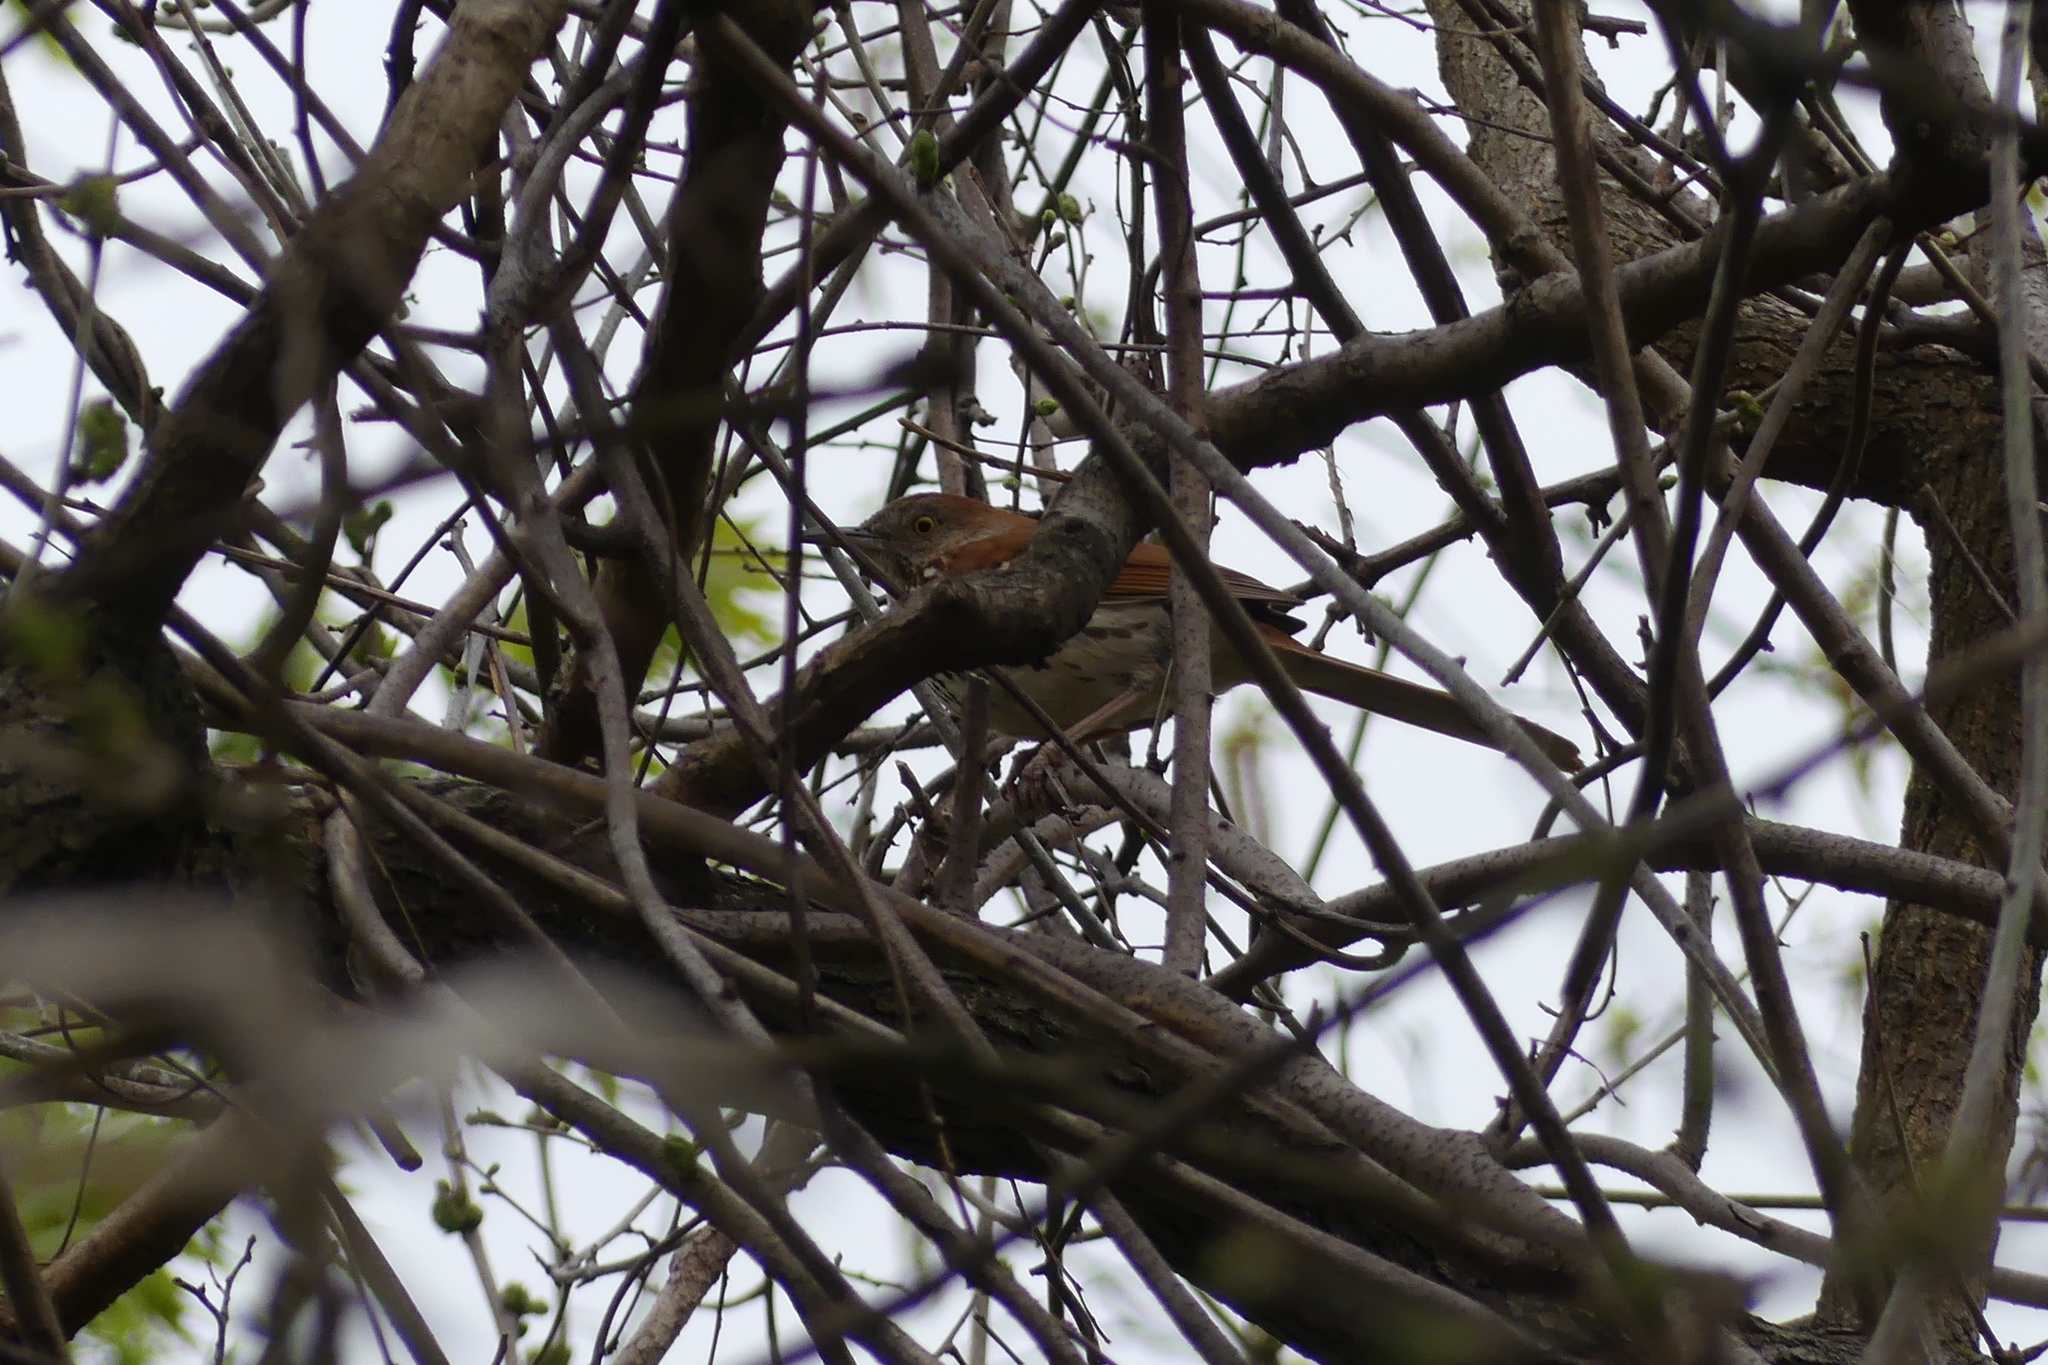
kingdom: Animalia
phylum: Chordata
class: Aves
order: Passeriformes
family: Mimidae
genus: Toxostoma
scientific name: Toxostoma rufum
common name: Brown thrasher
